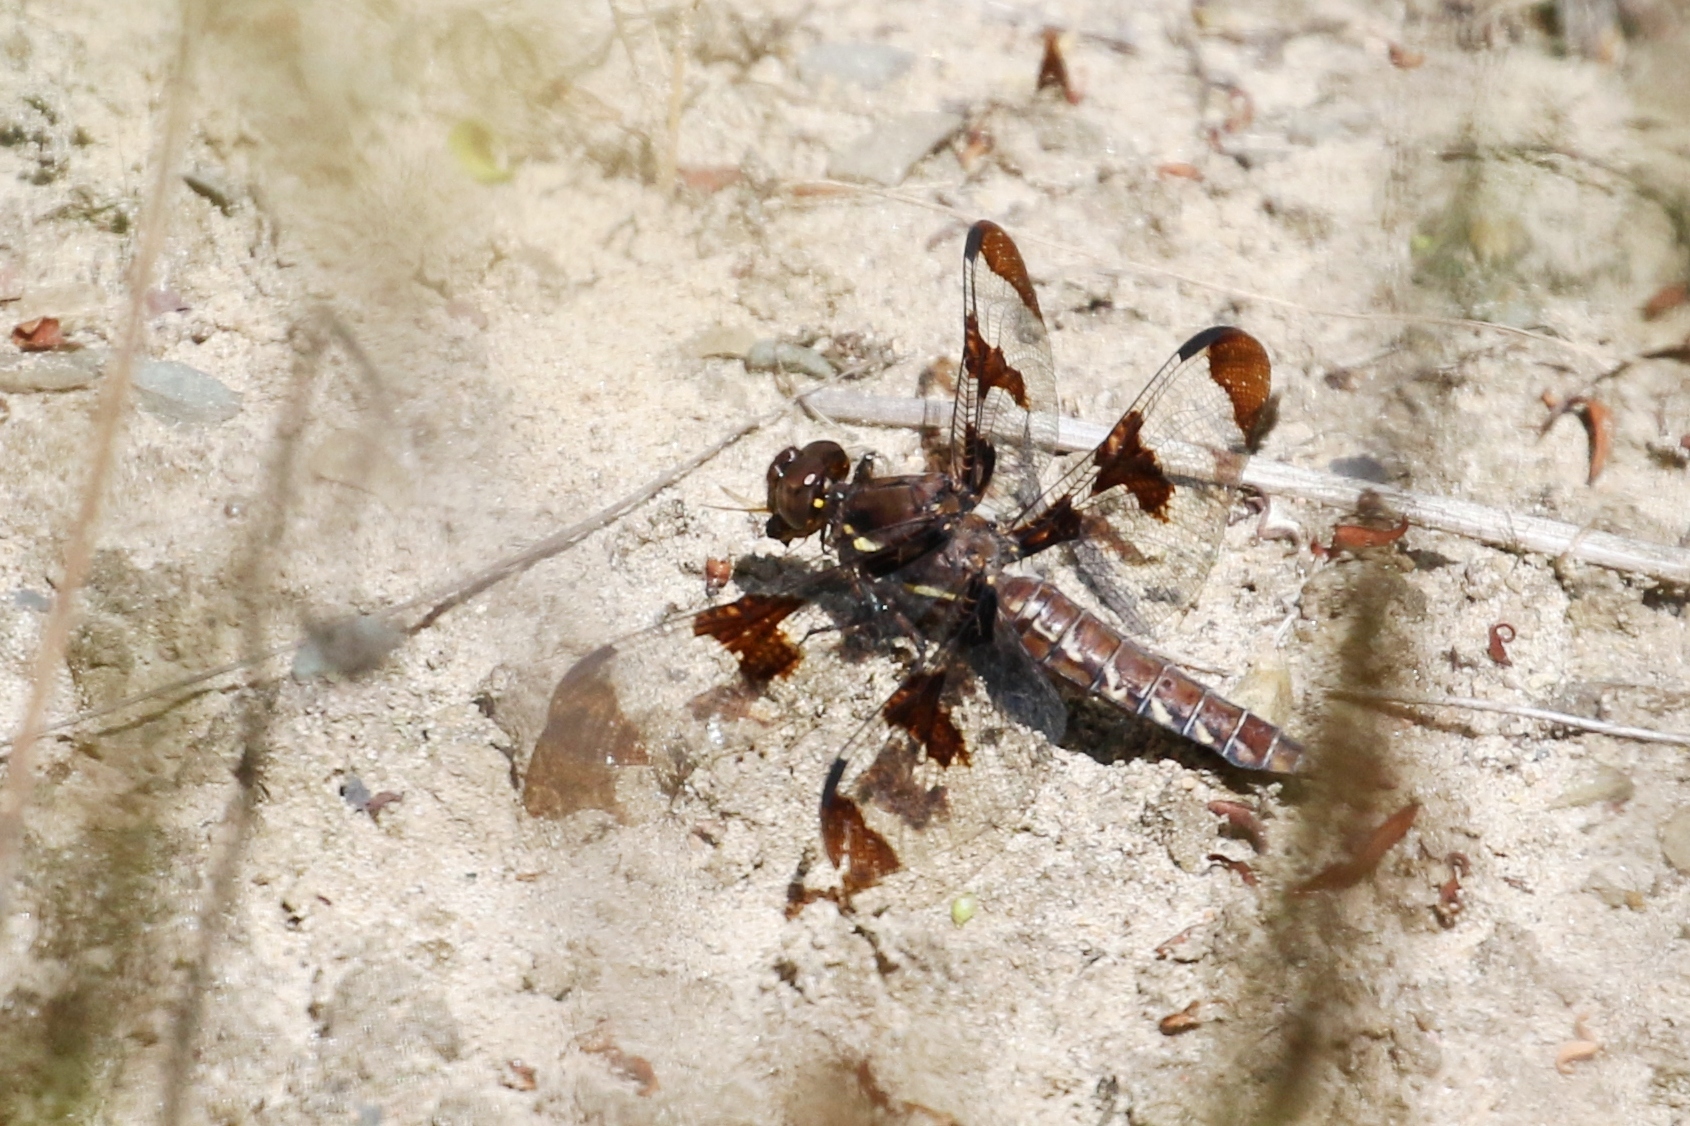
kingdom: Animalia
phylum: Arthropoda
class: Insecta
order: Odonata
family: Libellulidae
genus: Plathemis
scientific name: Plathemis lydia
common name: Common whitetail
